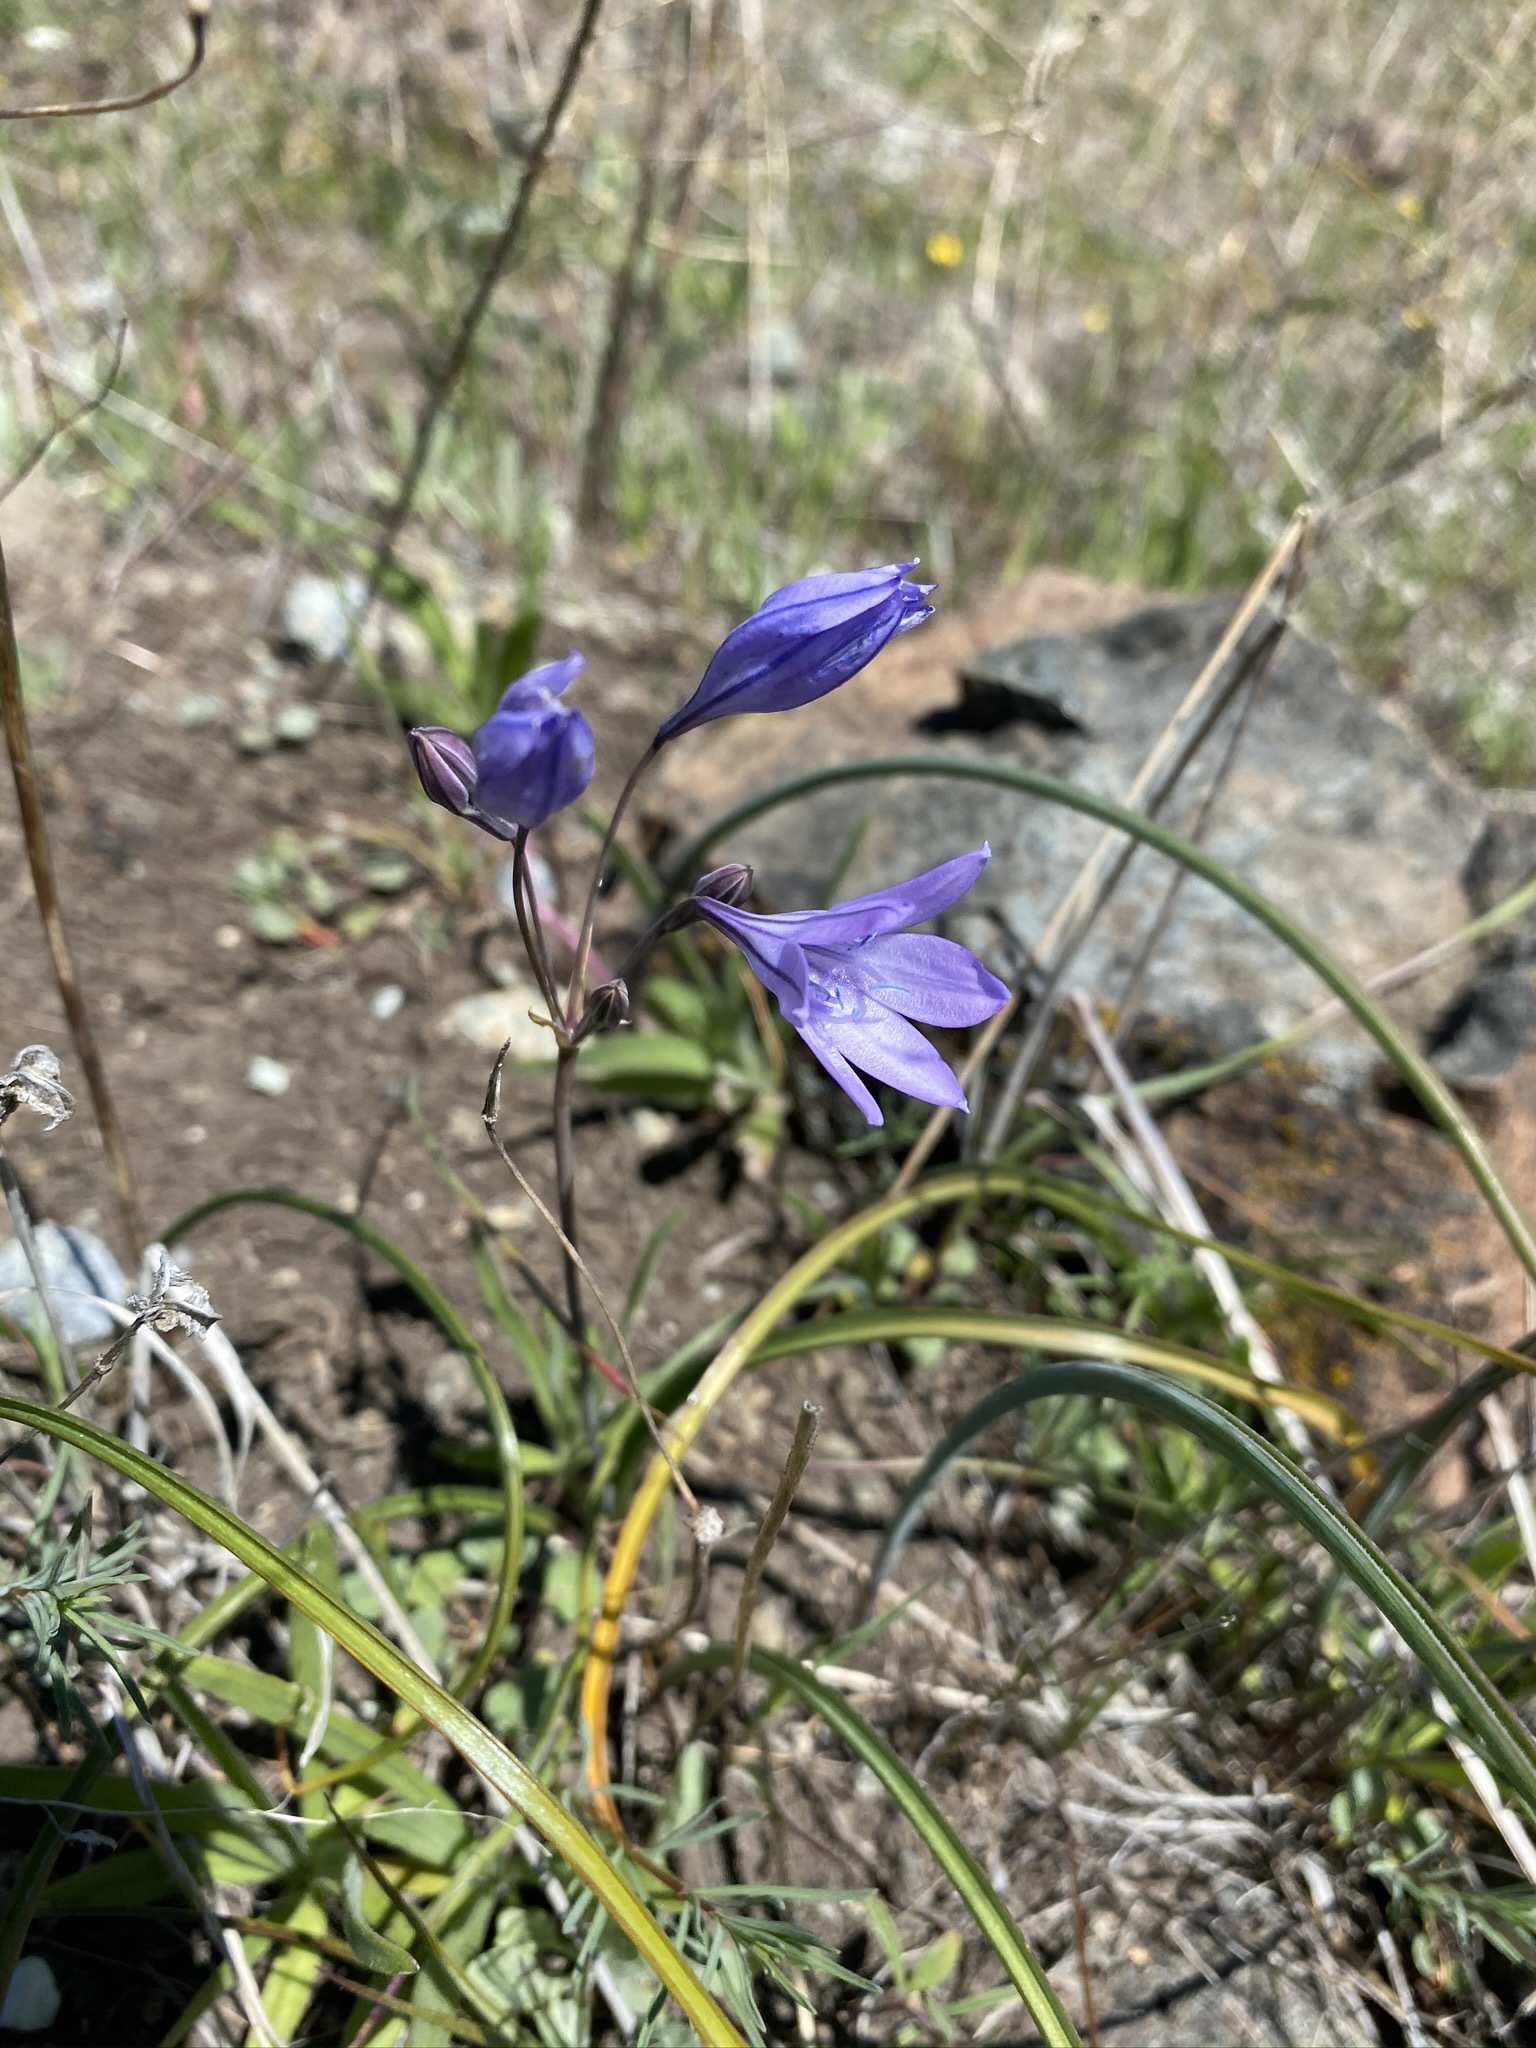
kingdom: Plantae
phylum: Tracheophyta
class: Liliopsida
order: Asparagales
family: Asparagaceae
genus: Triteleia
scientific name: Triteleia laxa
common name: Triplet-lily
